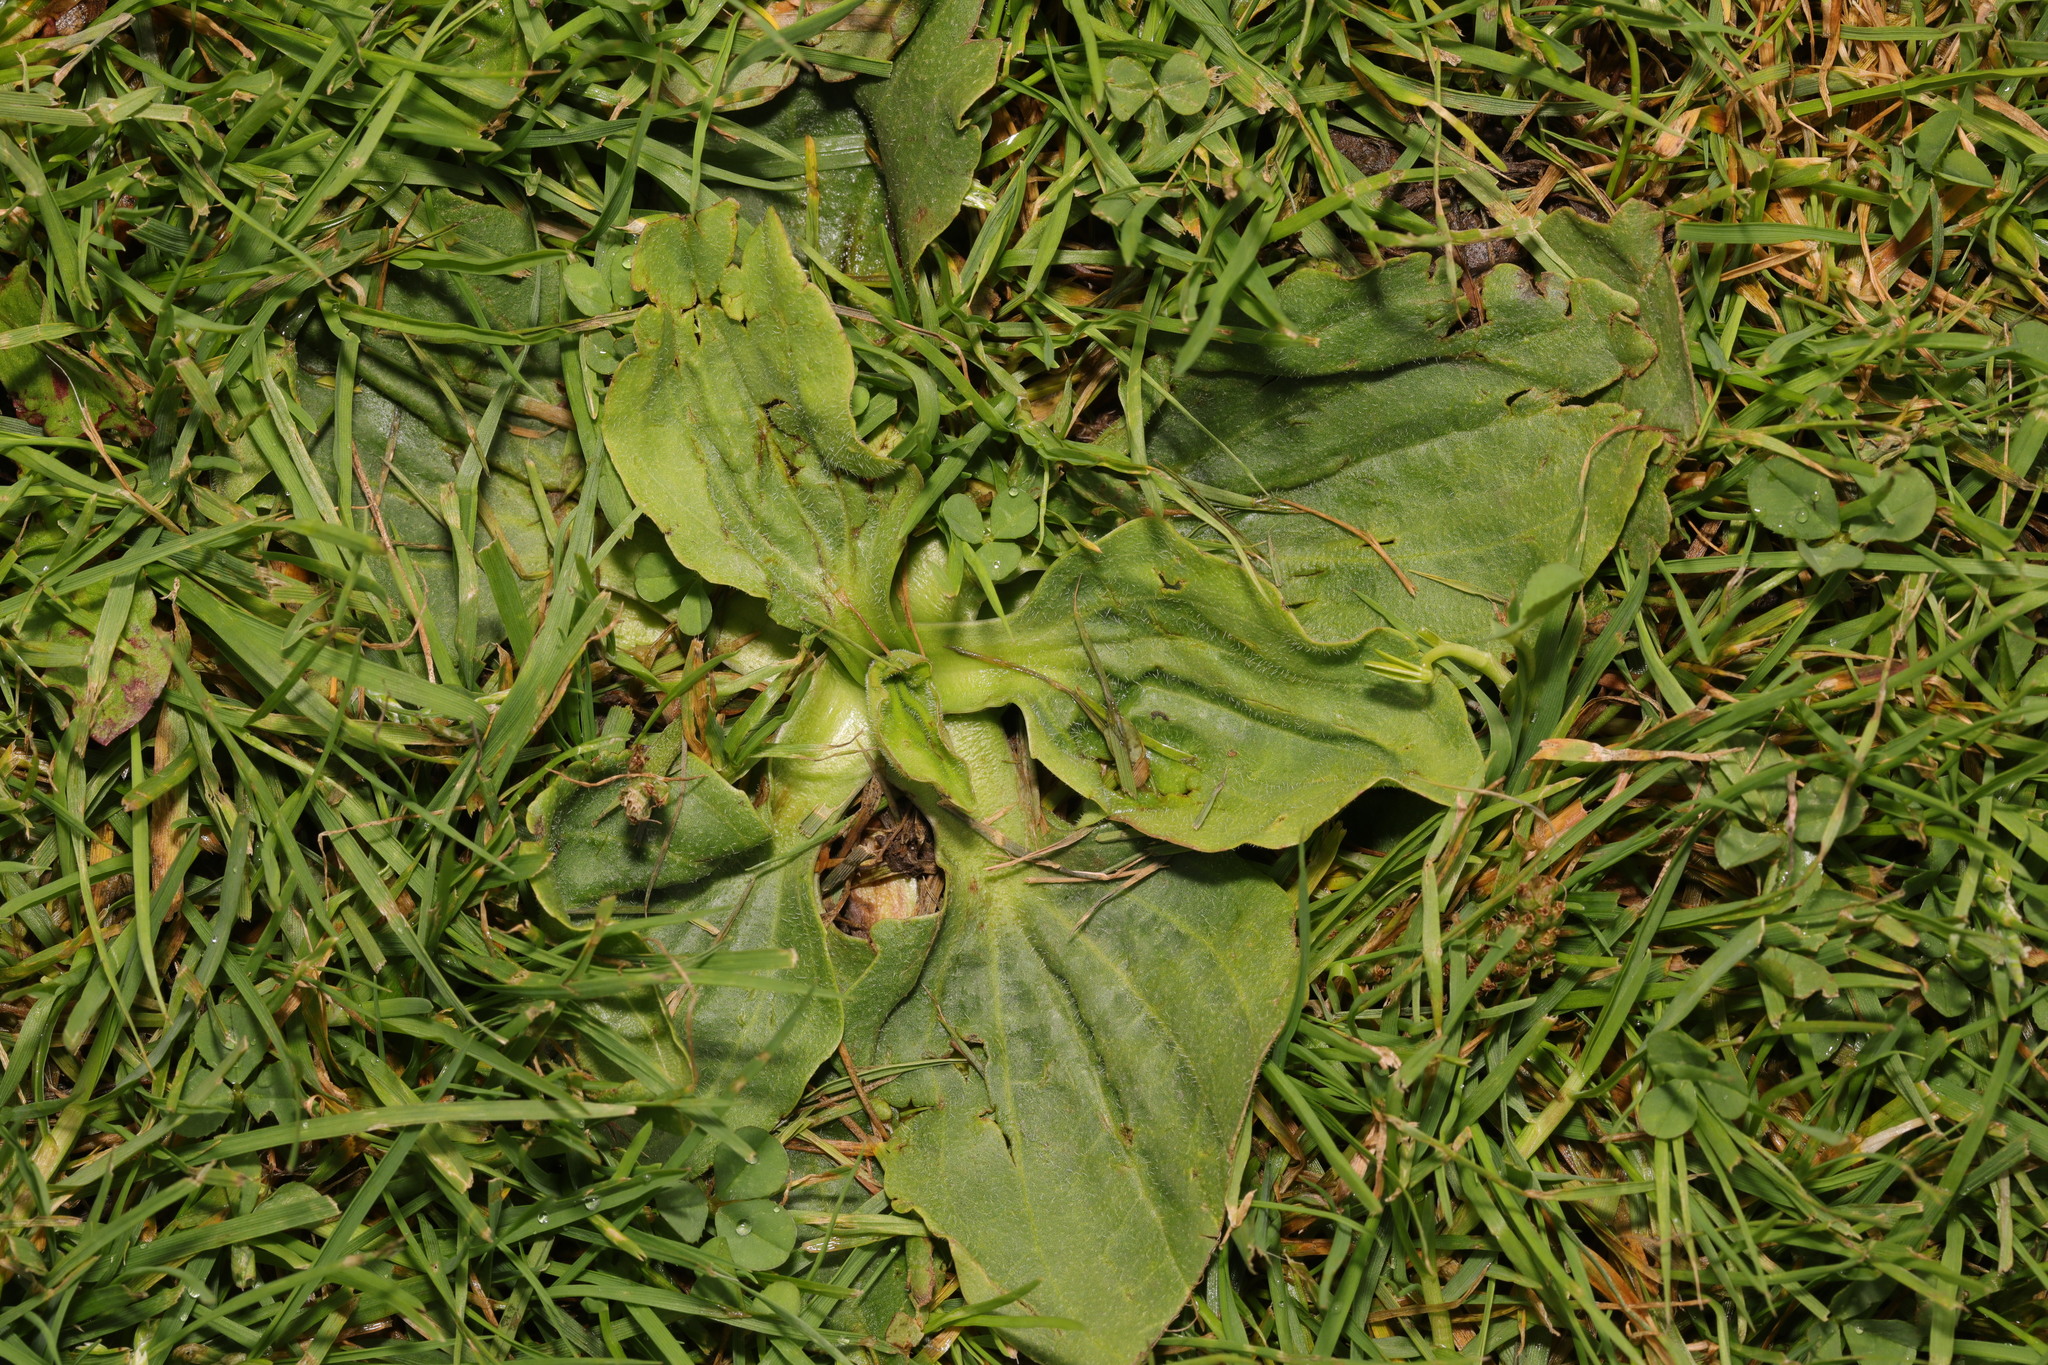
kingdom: Plantae
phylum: Tracheophyta
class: Magnoliopsida
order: Lamiales
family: Plantaginaceae
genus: Plantago
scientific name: Plantago major
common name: Common plantain
